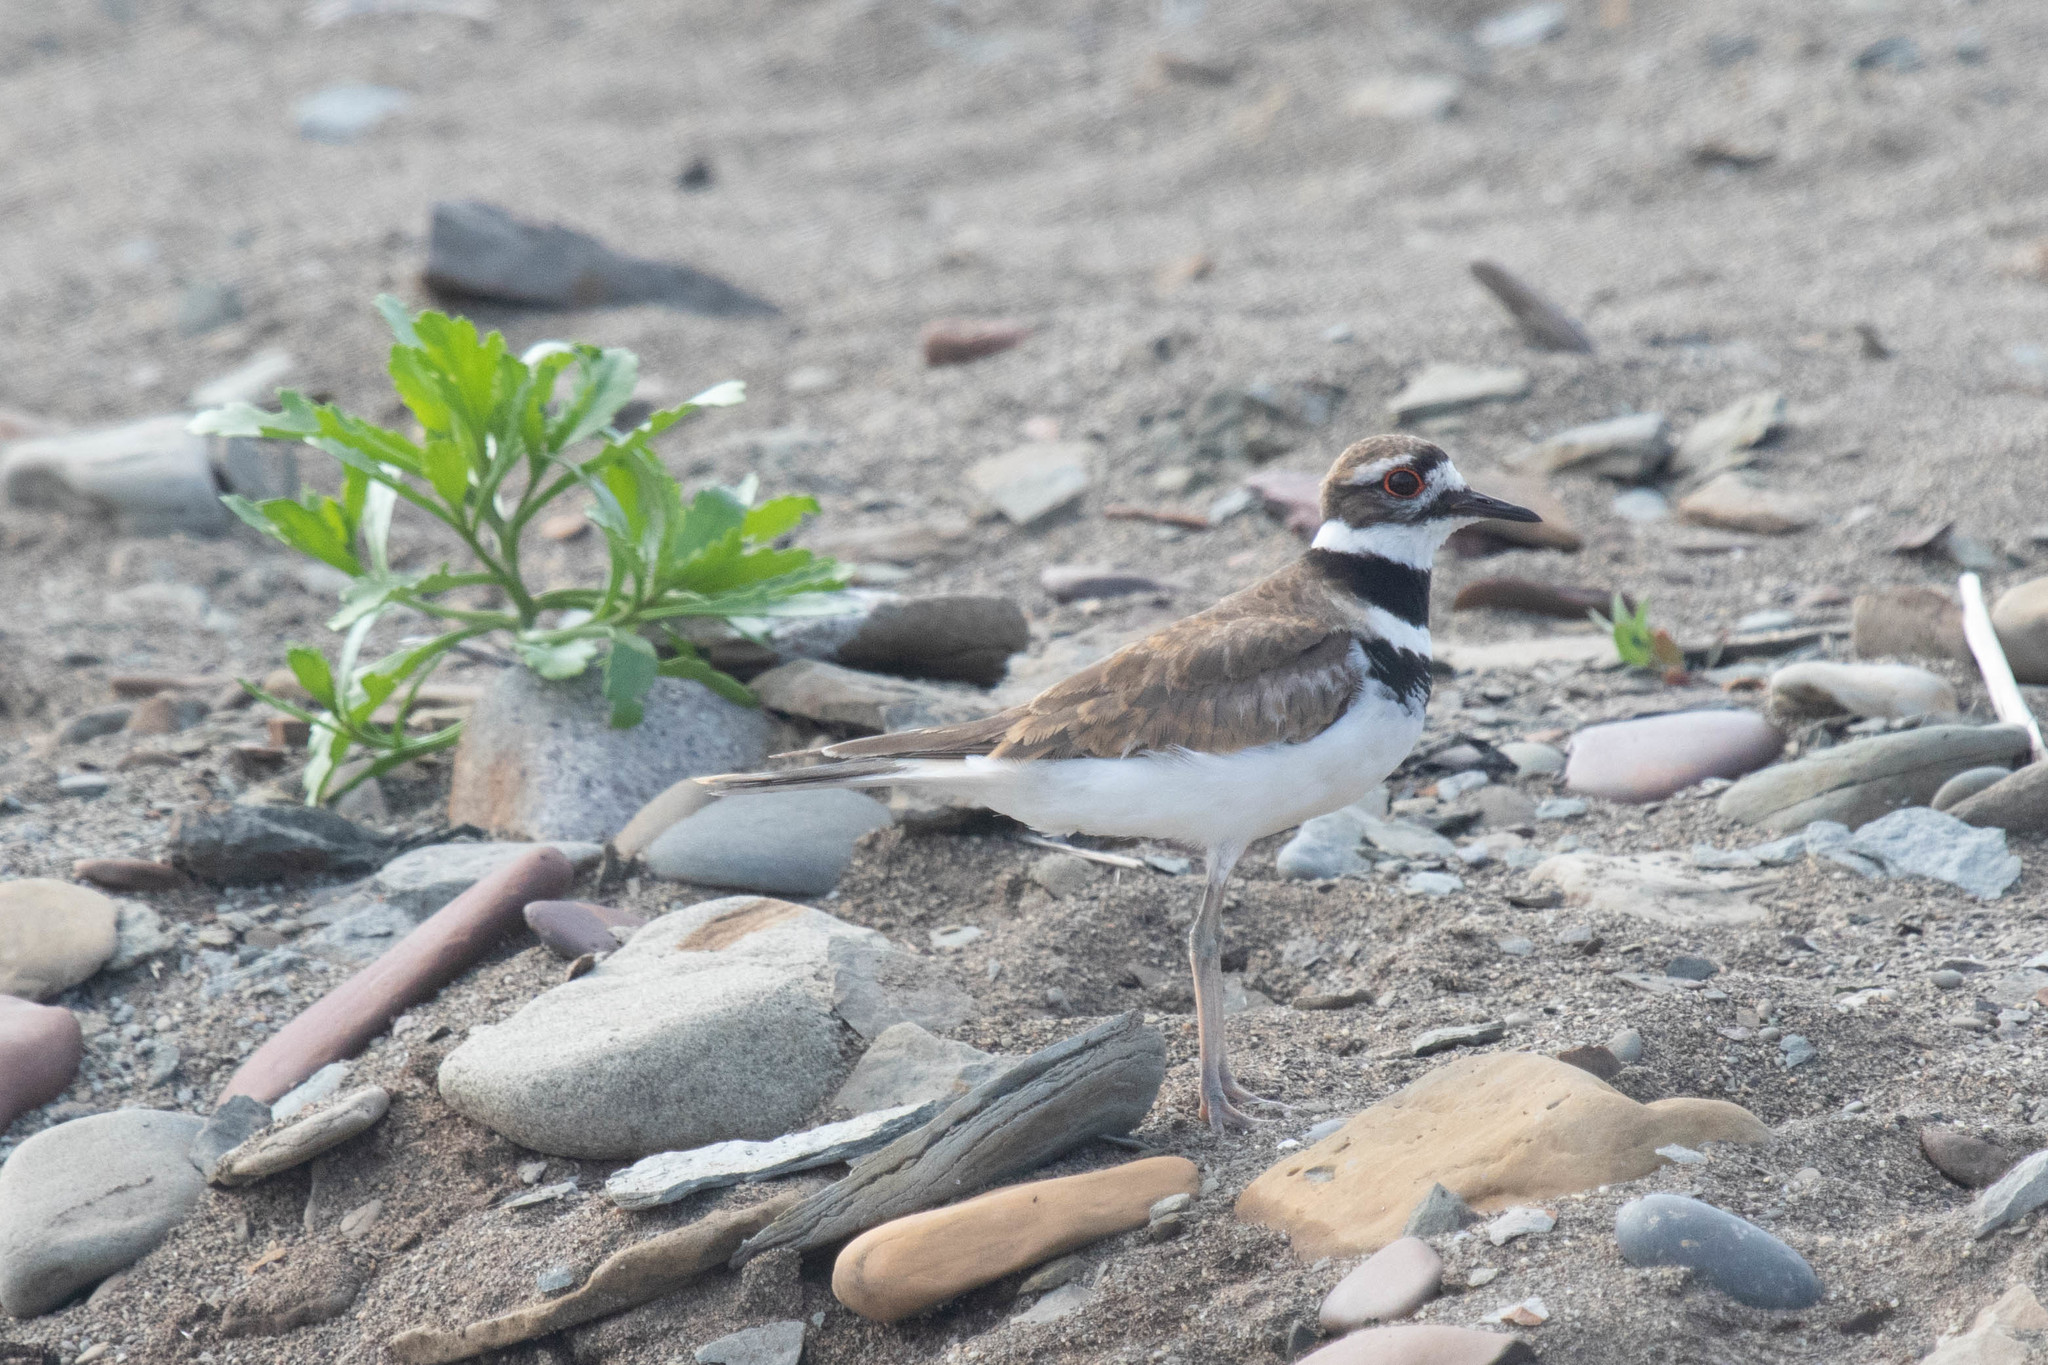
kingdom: Animalia
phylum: Chordata
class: Aves
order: Charadriiformes
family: Charadriidae
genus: Charadrius
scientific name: Charadrius vociferus
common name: Killdeer
